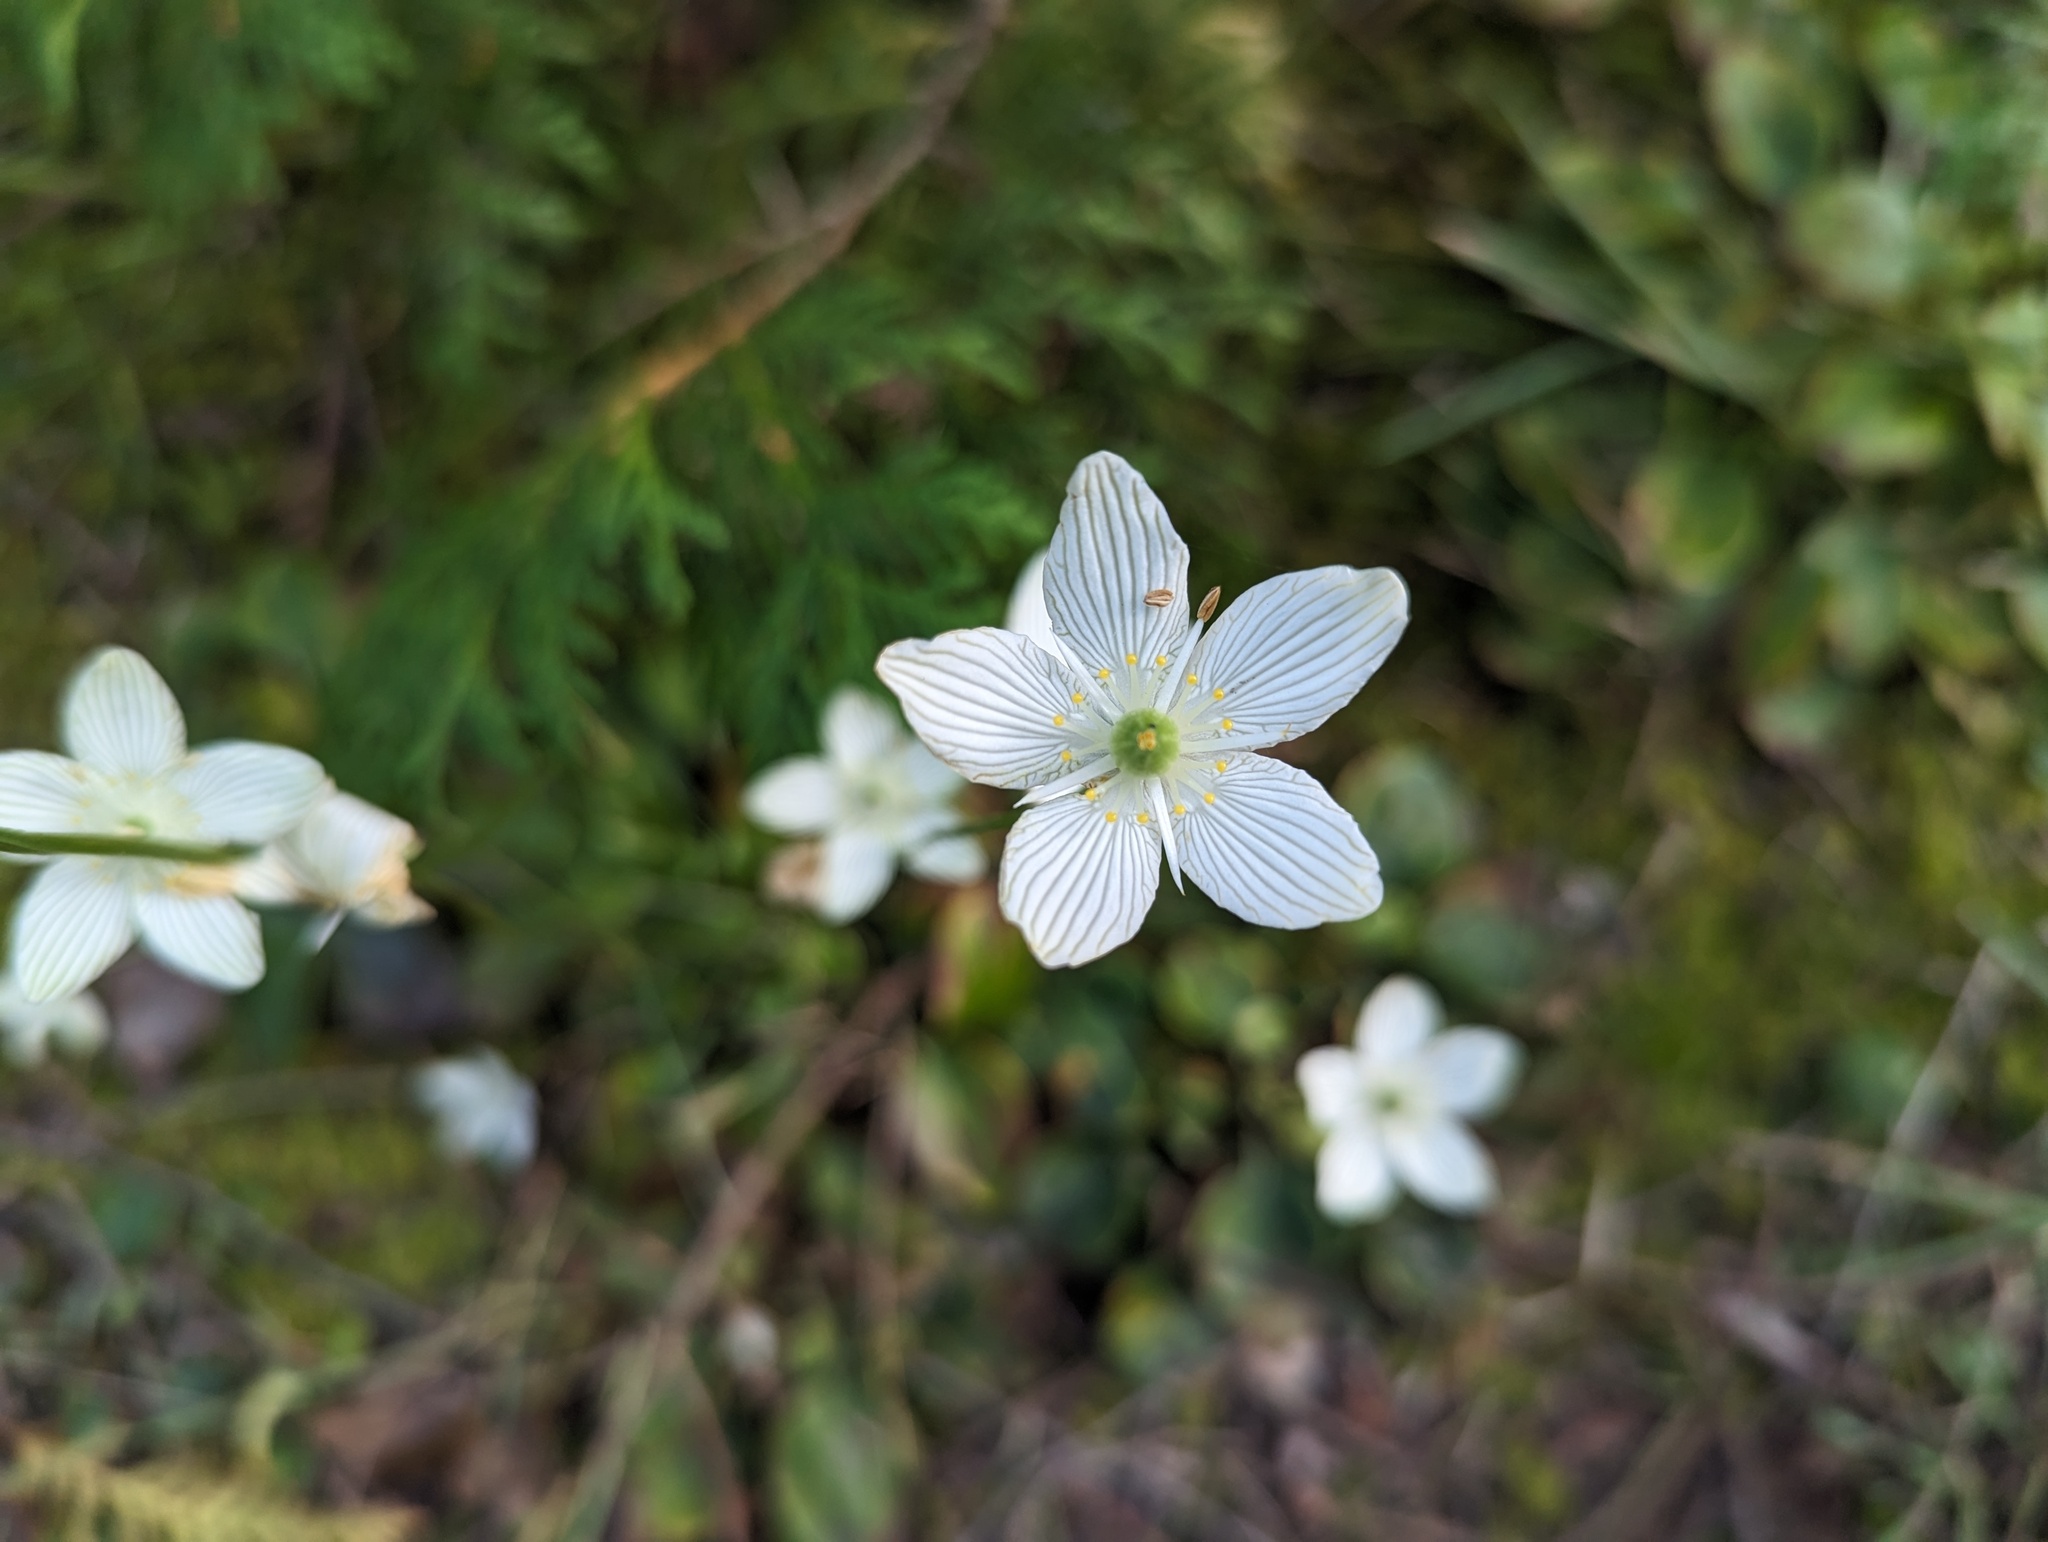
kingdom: Plantae
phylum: Tracheophyta
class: Magnoliopsida
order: Celastrales
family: Parnassiaceae
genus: Parnassia
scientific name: Parnassia glauca
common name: American grass-of-parnassus
